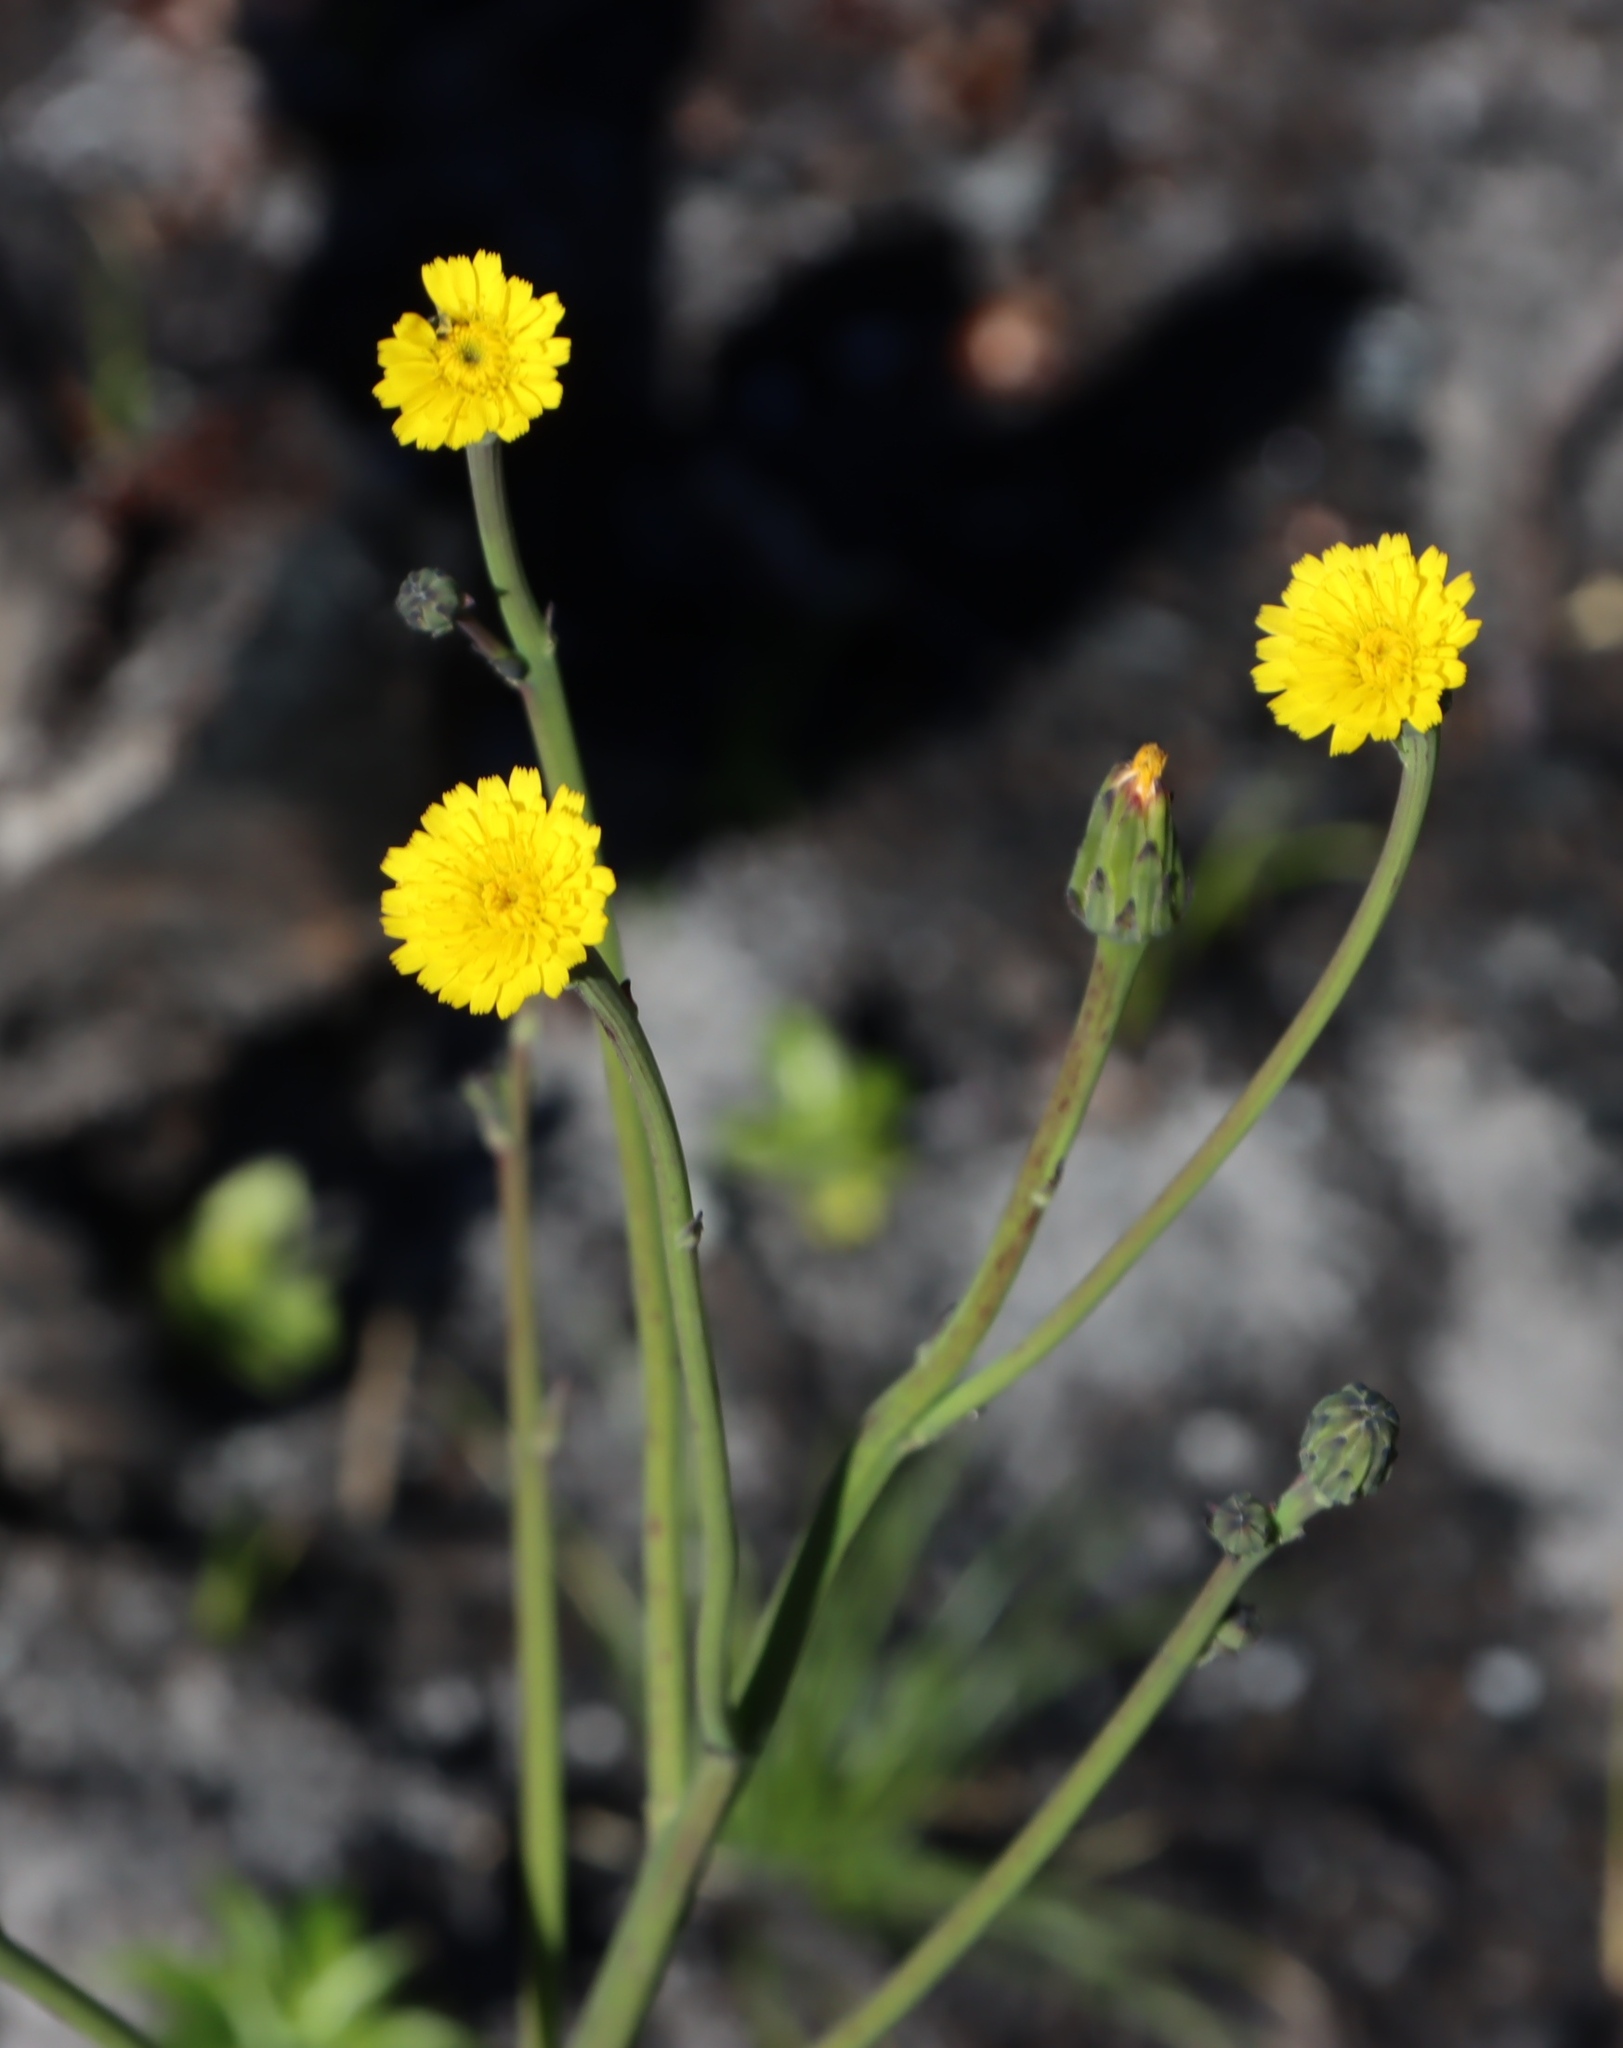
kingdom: Plantae
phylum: Tracheophyta
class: Magnoliopsida
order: Asterales
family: Asteraceae
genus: Hypochaeris
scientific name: Hypochaeris glabra
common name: Smooth catsear
